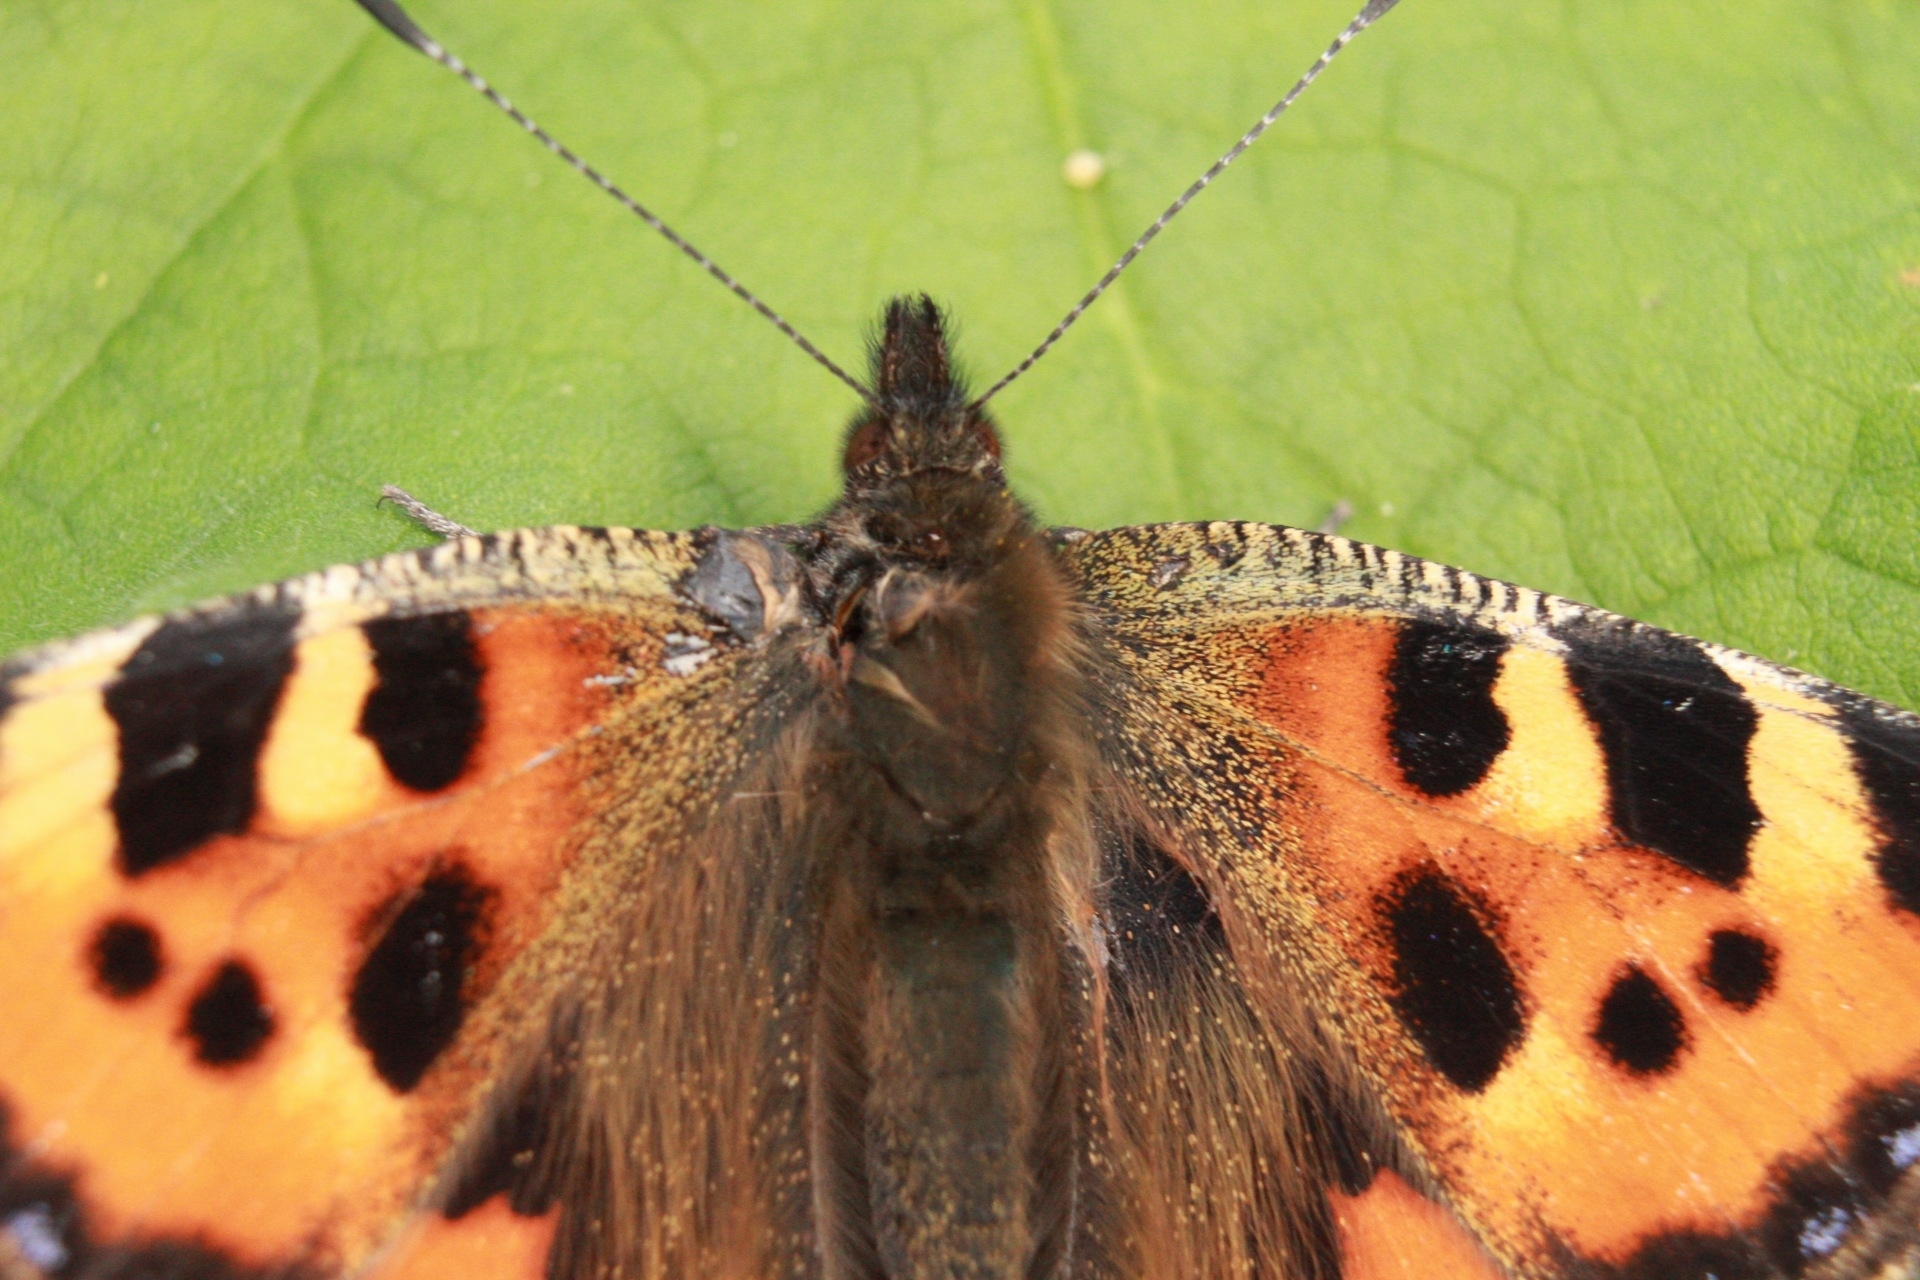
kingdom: Animalia
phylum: Arthropoda
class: Insecta
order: Lepidoptera
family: Nymphalidae
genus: Aglais
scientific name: Aglais urticae
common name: Small tortoiseshell
